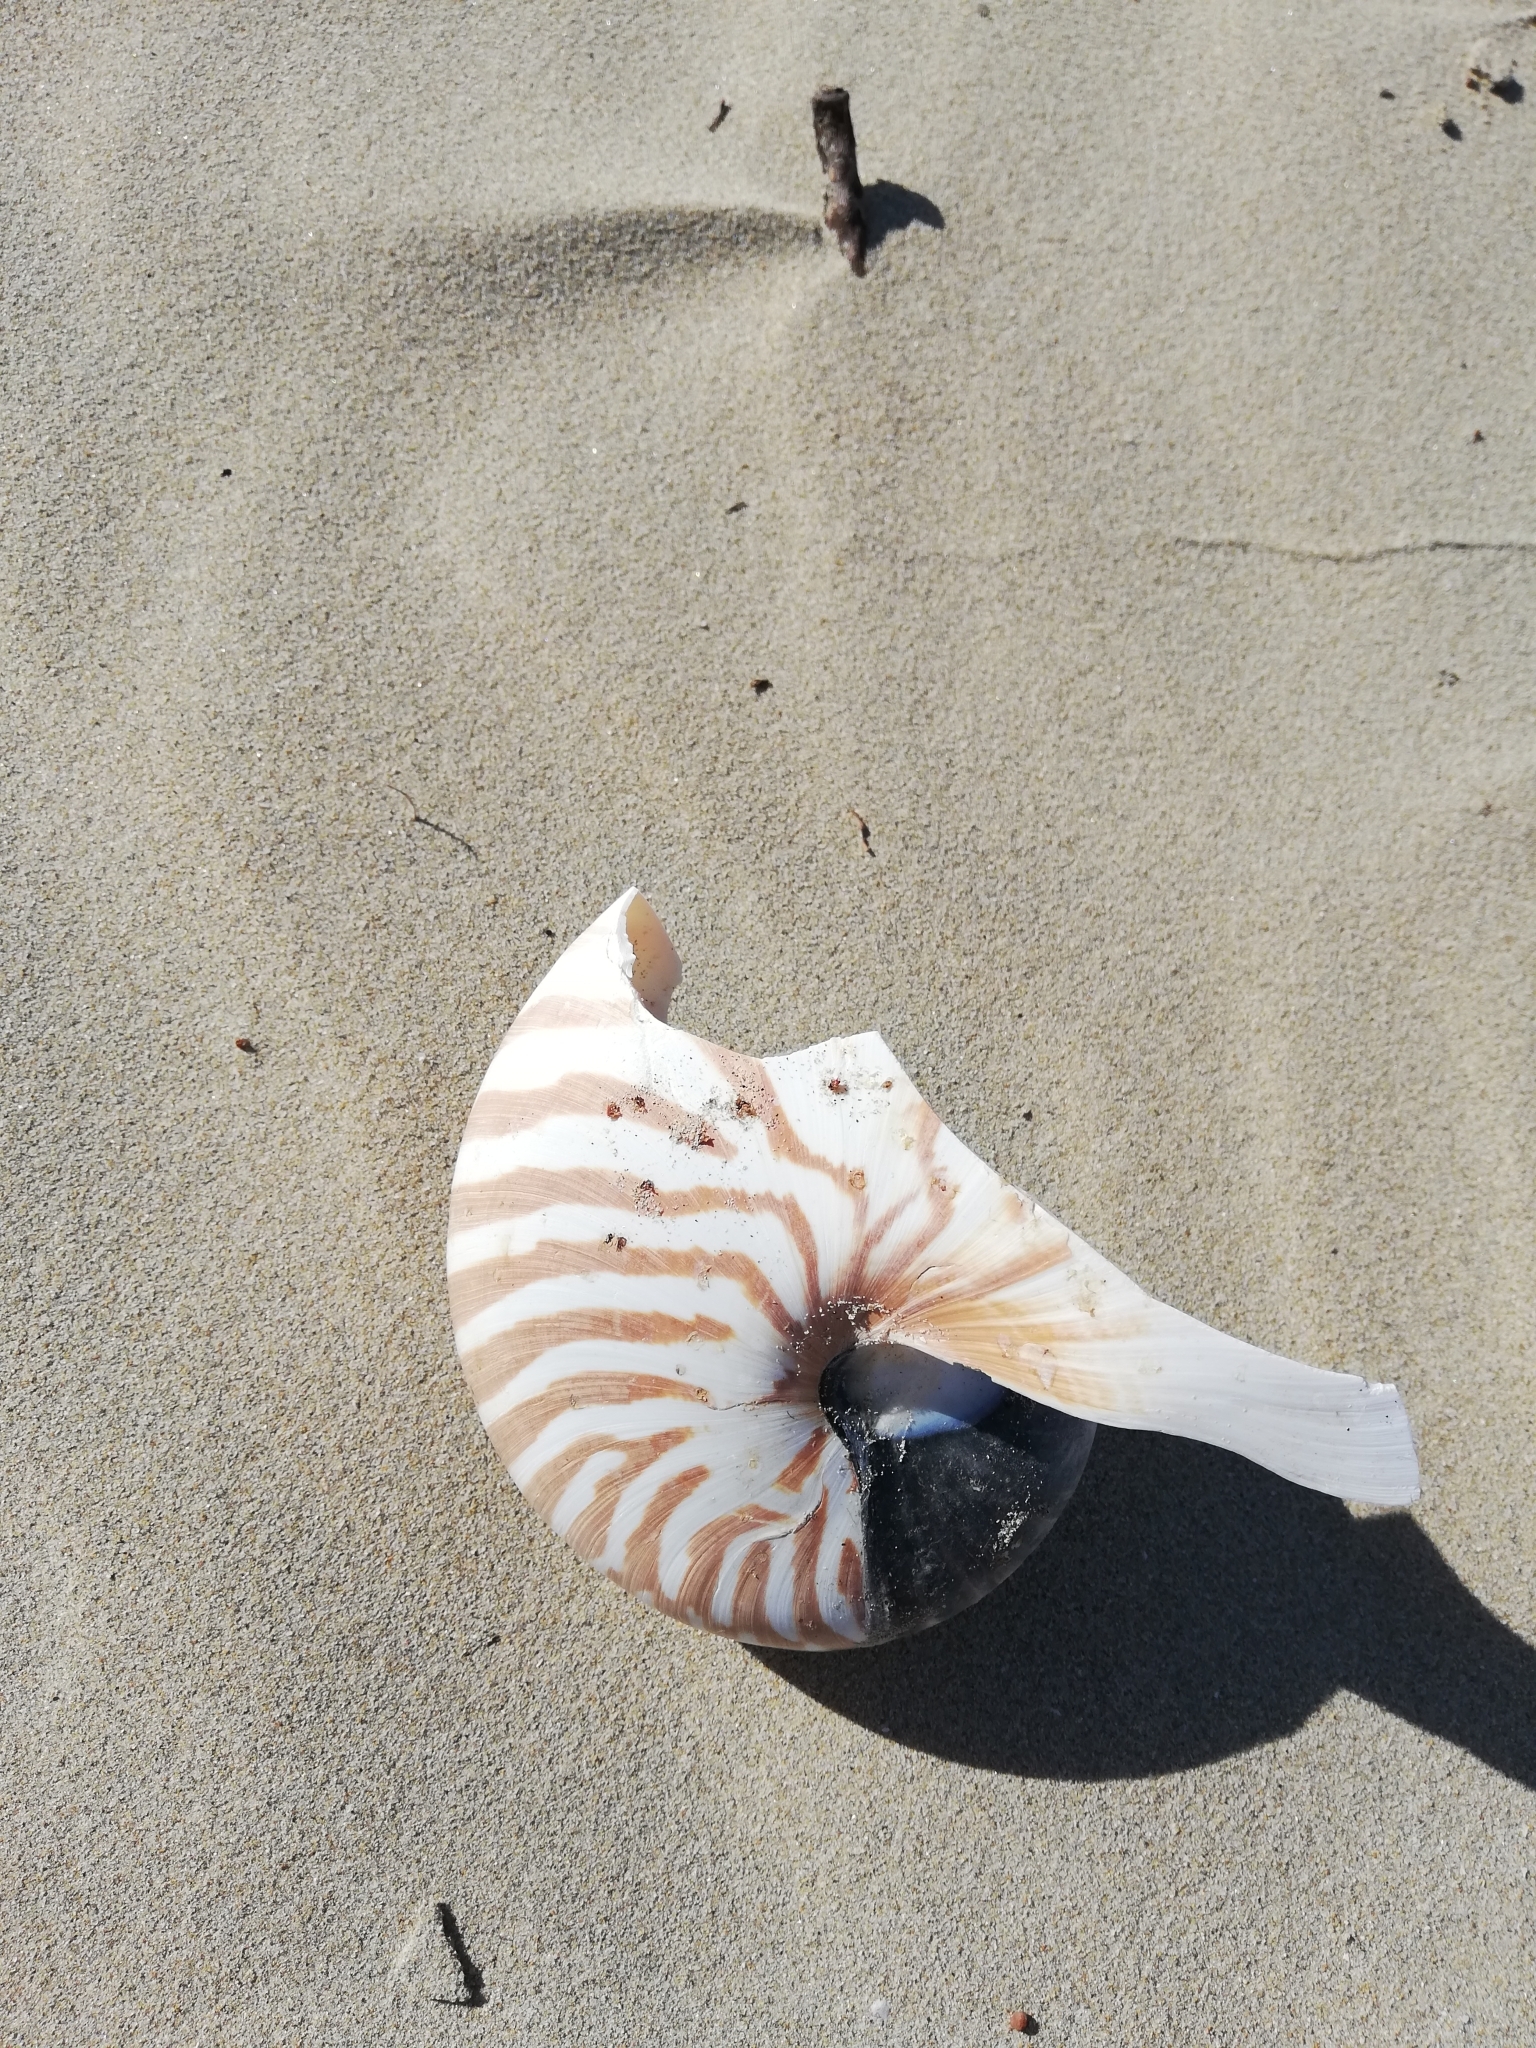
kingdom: Animalia
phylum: Mollusca
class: Cephalopoda
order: Nautilida
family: Nautilidae
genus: Nautilus
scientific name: Nautilus pompilius
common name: Emperor nautilus
